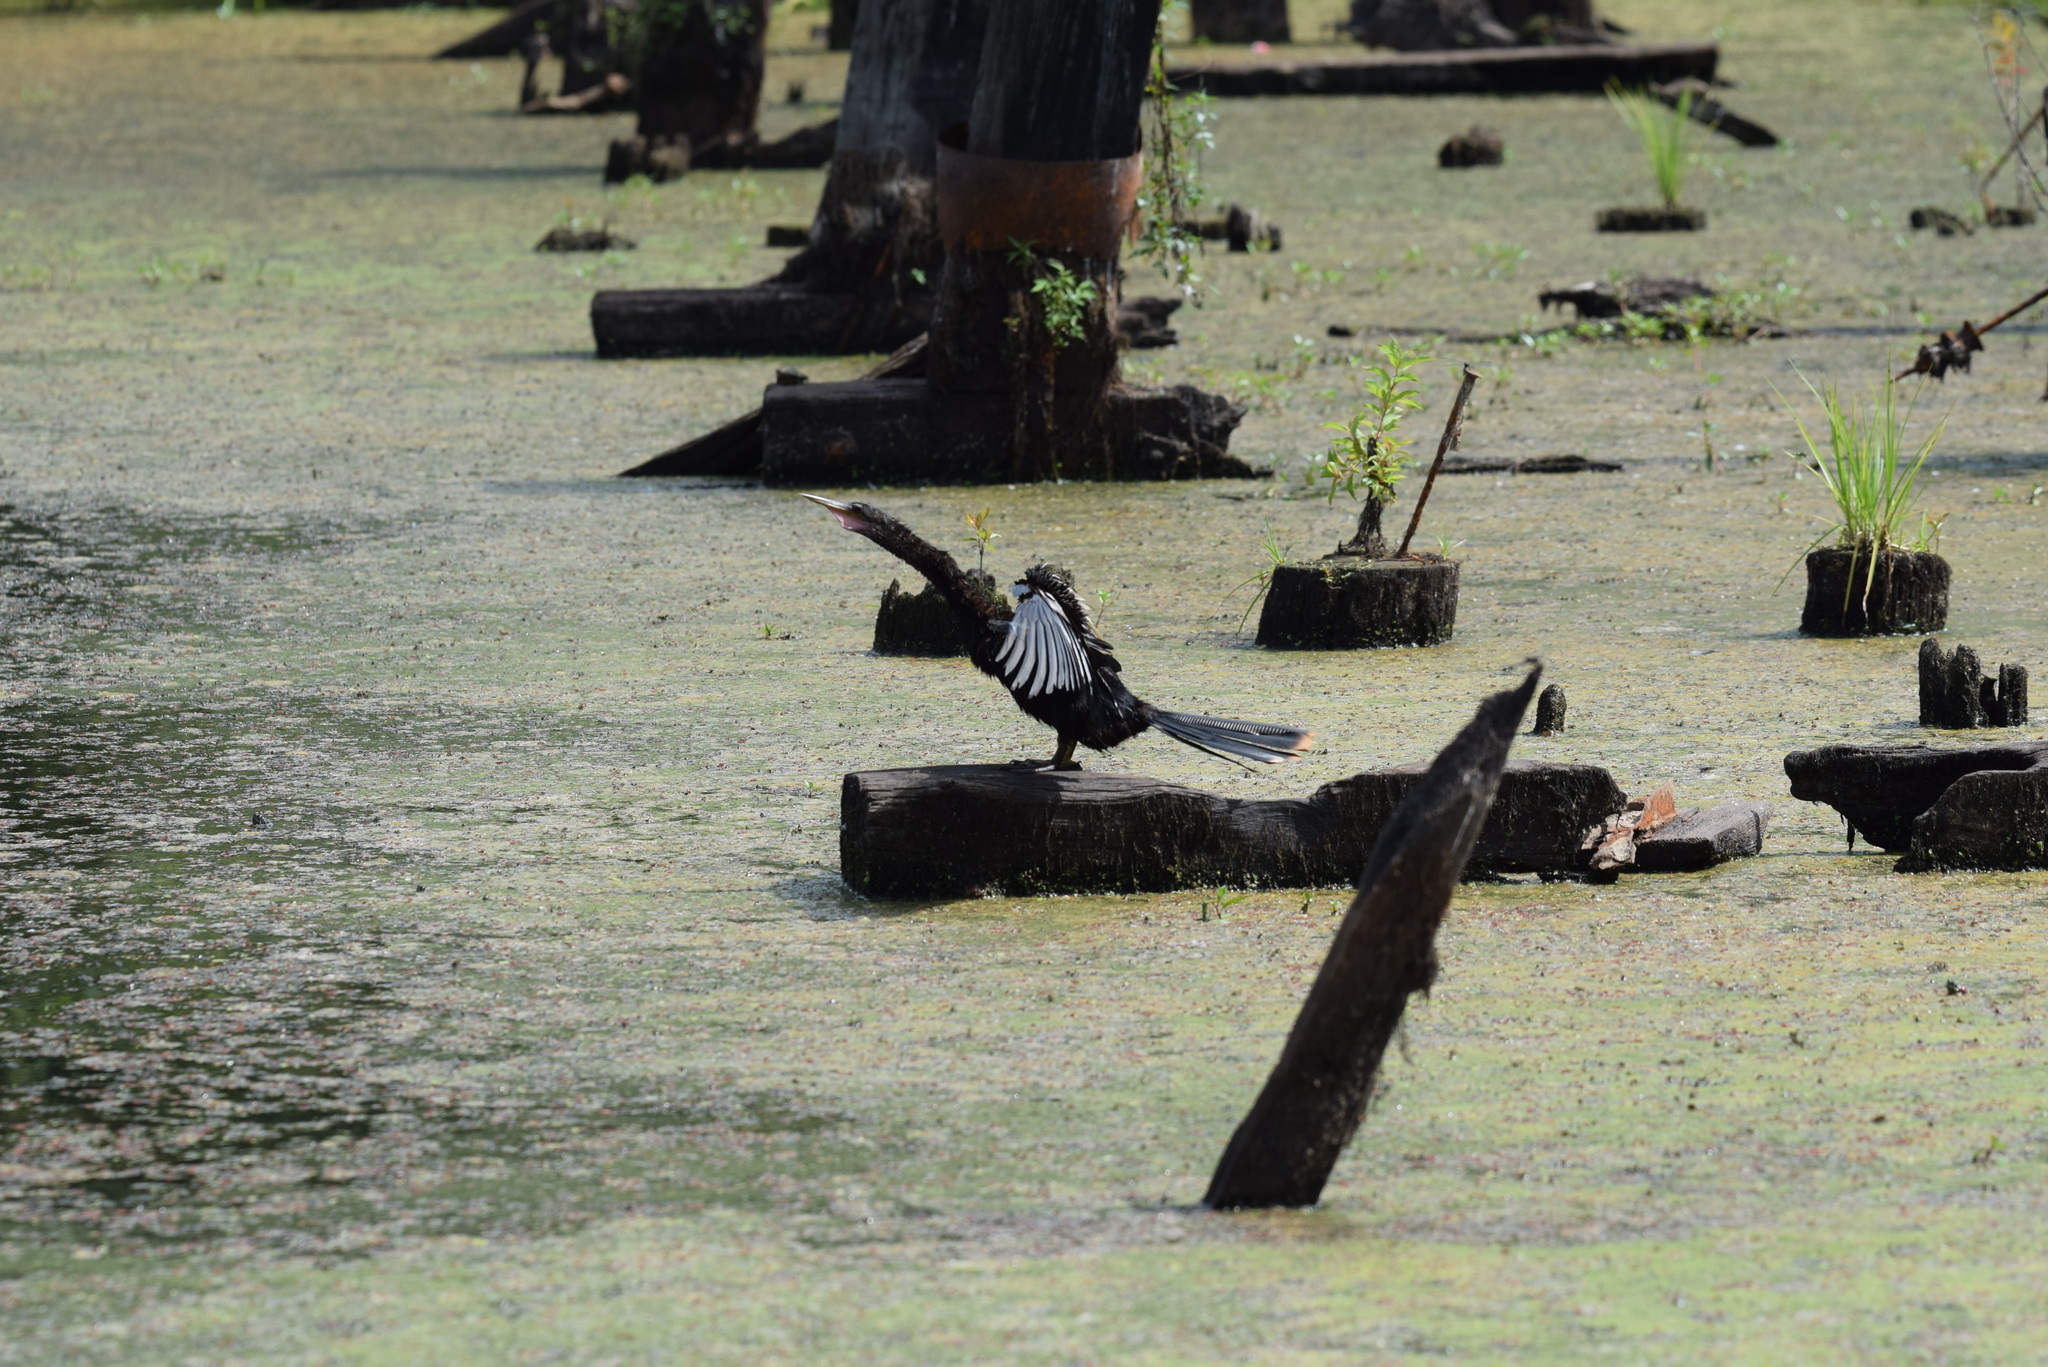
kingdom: Animalia
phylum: Chordata
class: Aves
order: Suliformes
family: Anhingidae
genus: Anhinga
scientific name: Anhinga anhinga
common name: Anhinga
